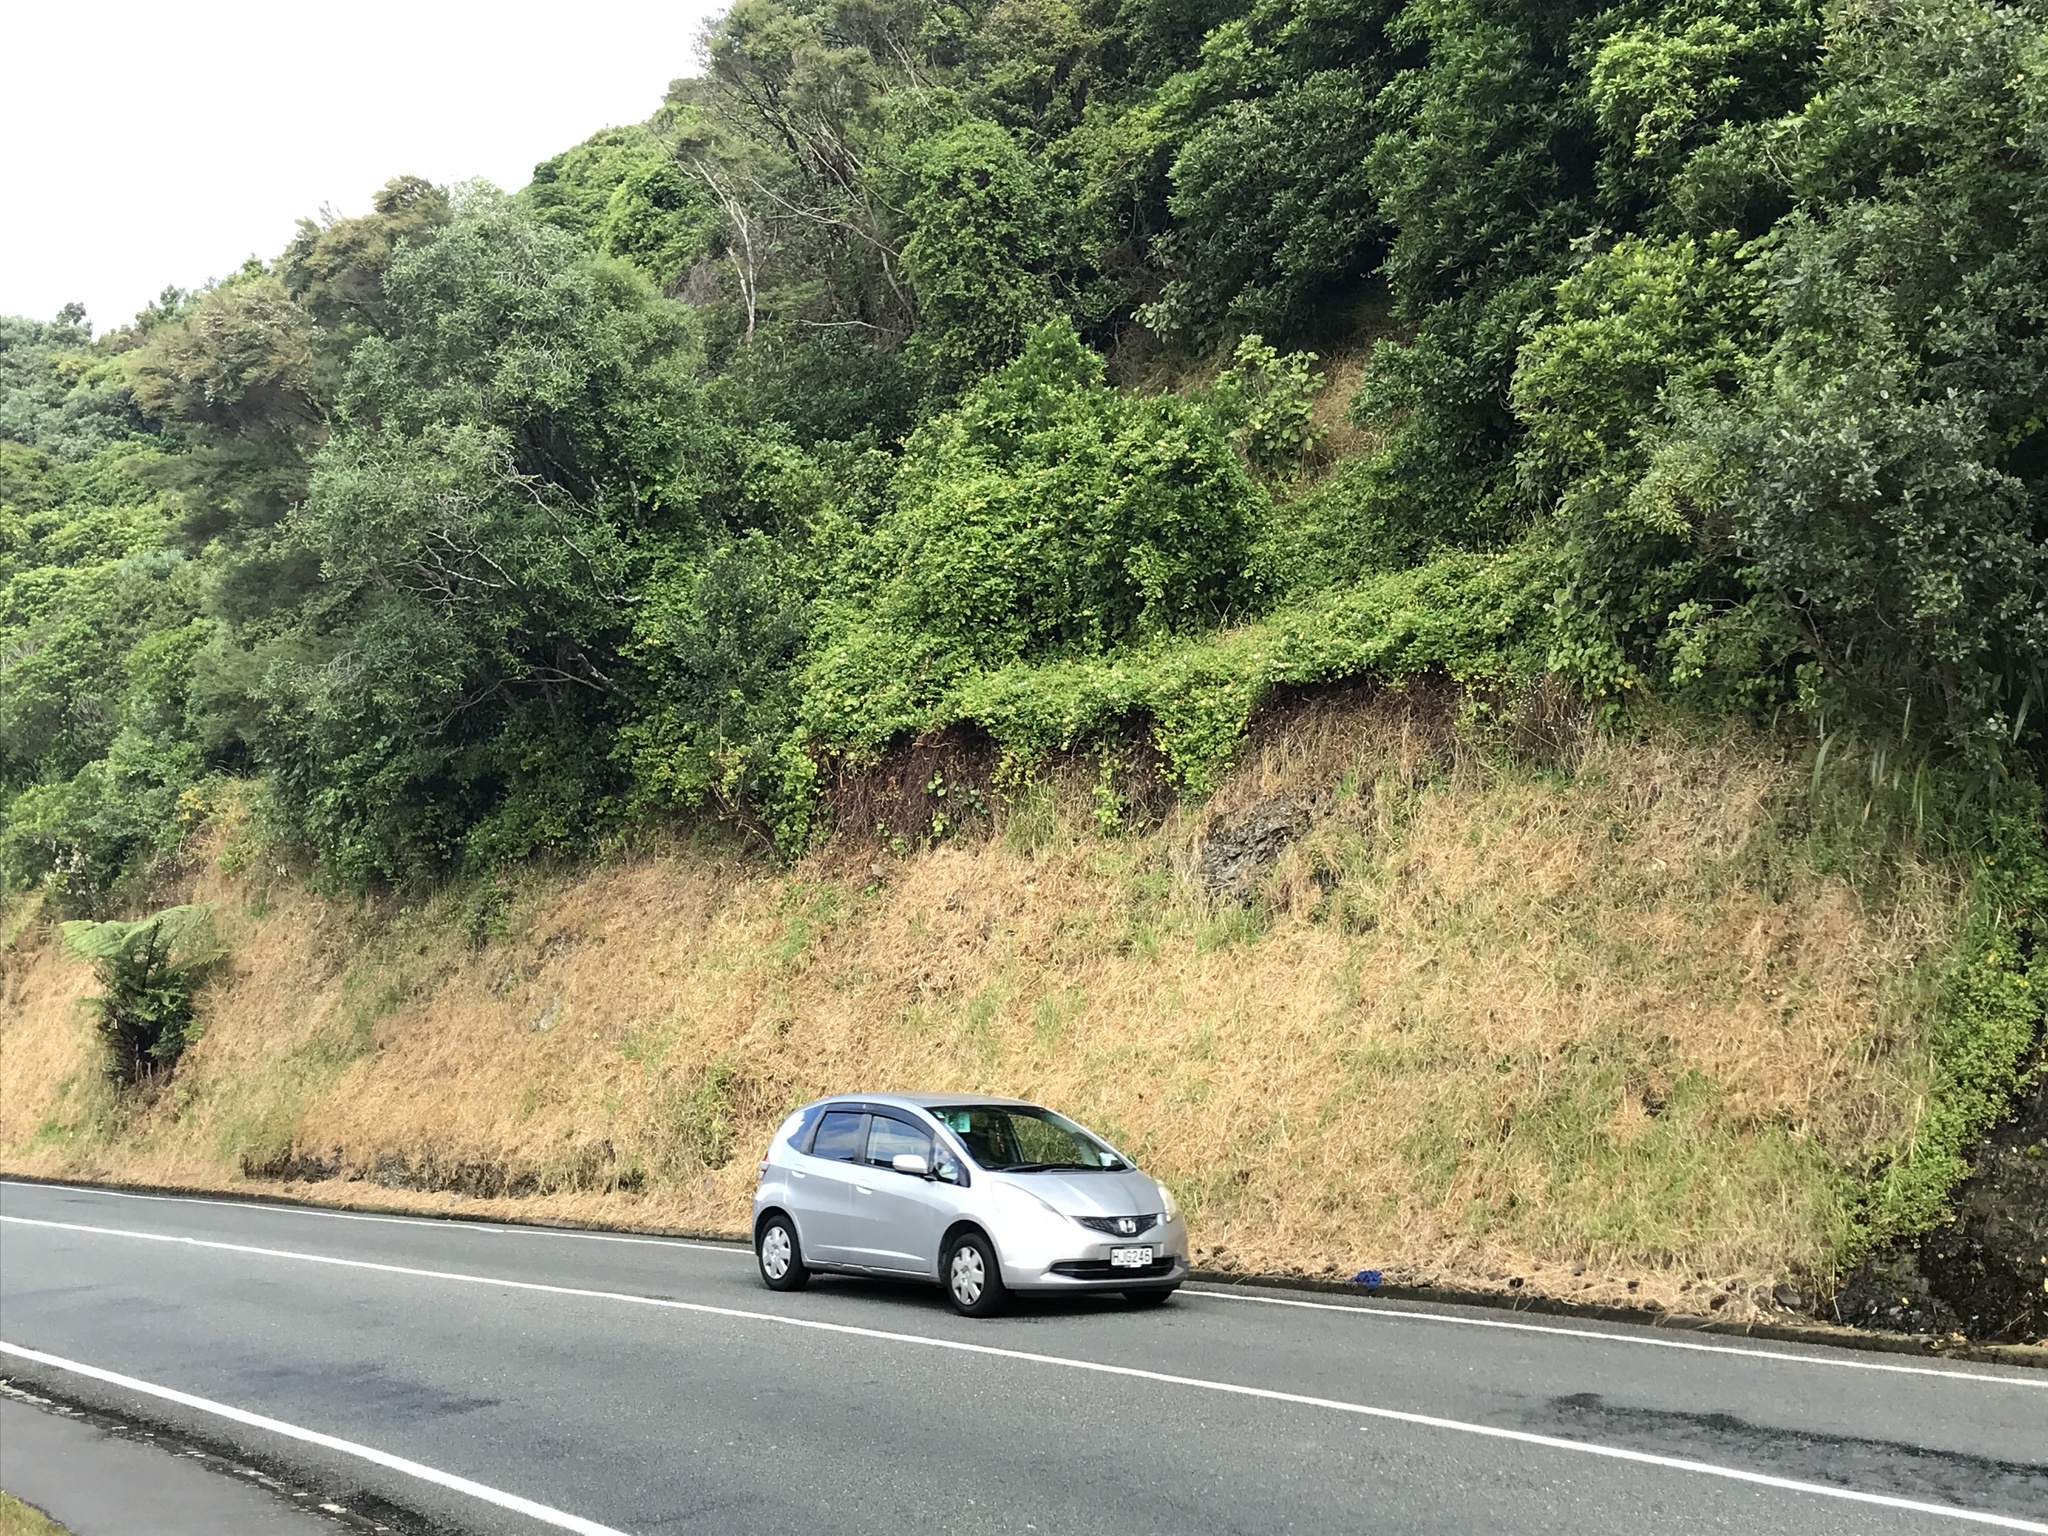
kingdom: Plantae
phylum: Tracheophyta
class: Magnoliopsida
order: Dipsacales
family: Caprifoliaceae
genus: Lonicera
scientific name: Lonicera japonica
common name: Japanese honeysuckle
